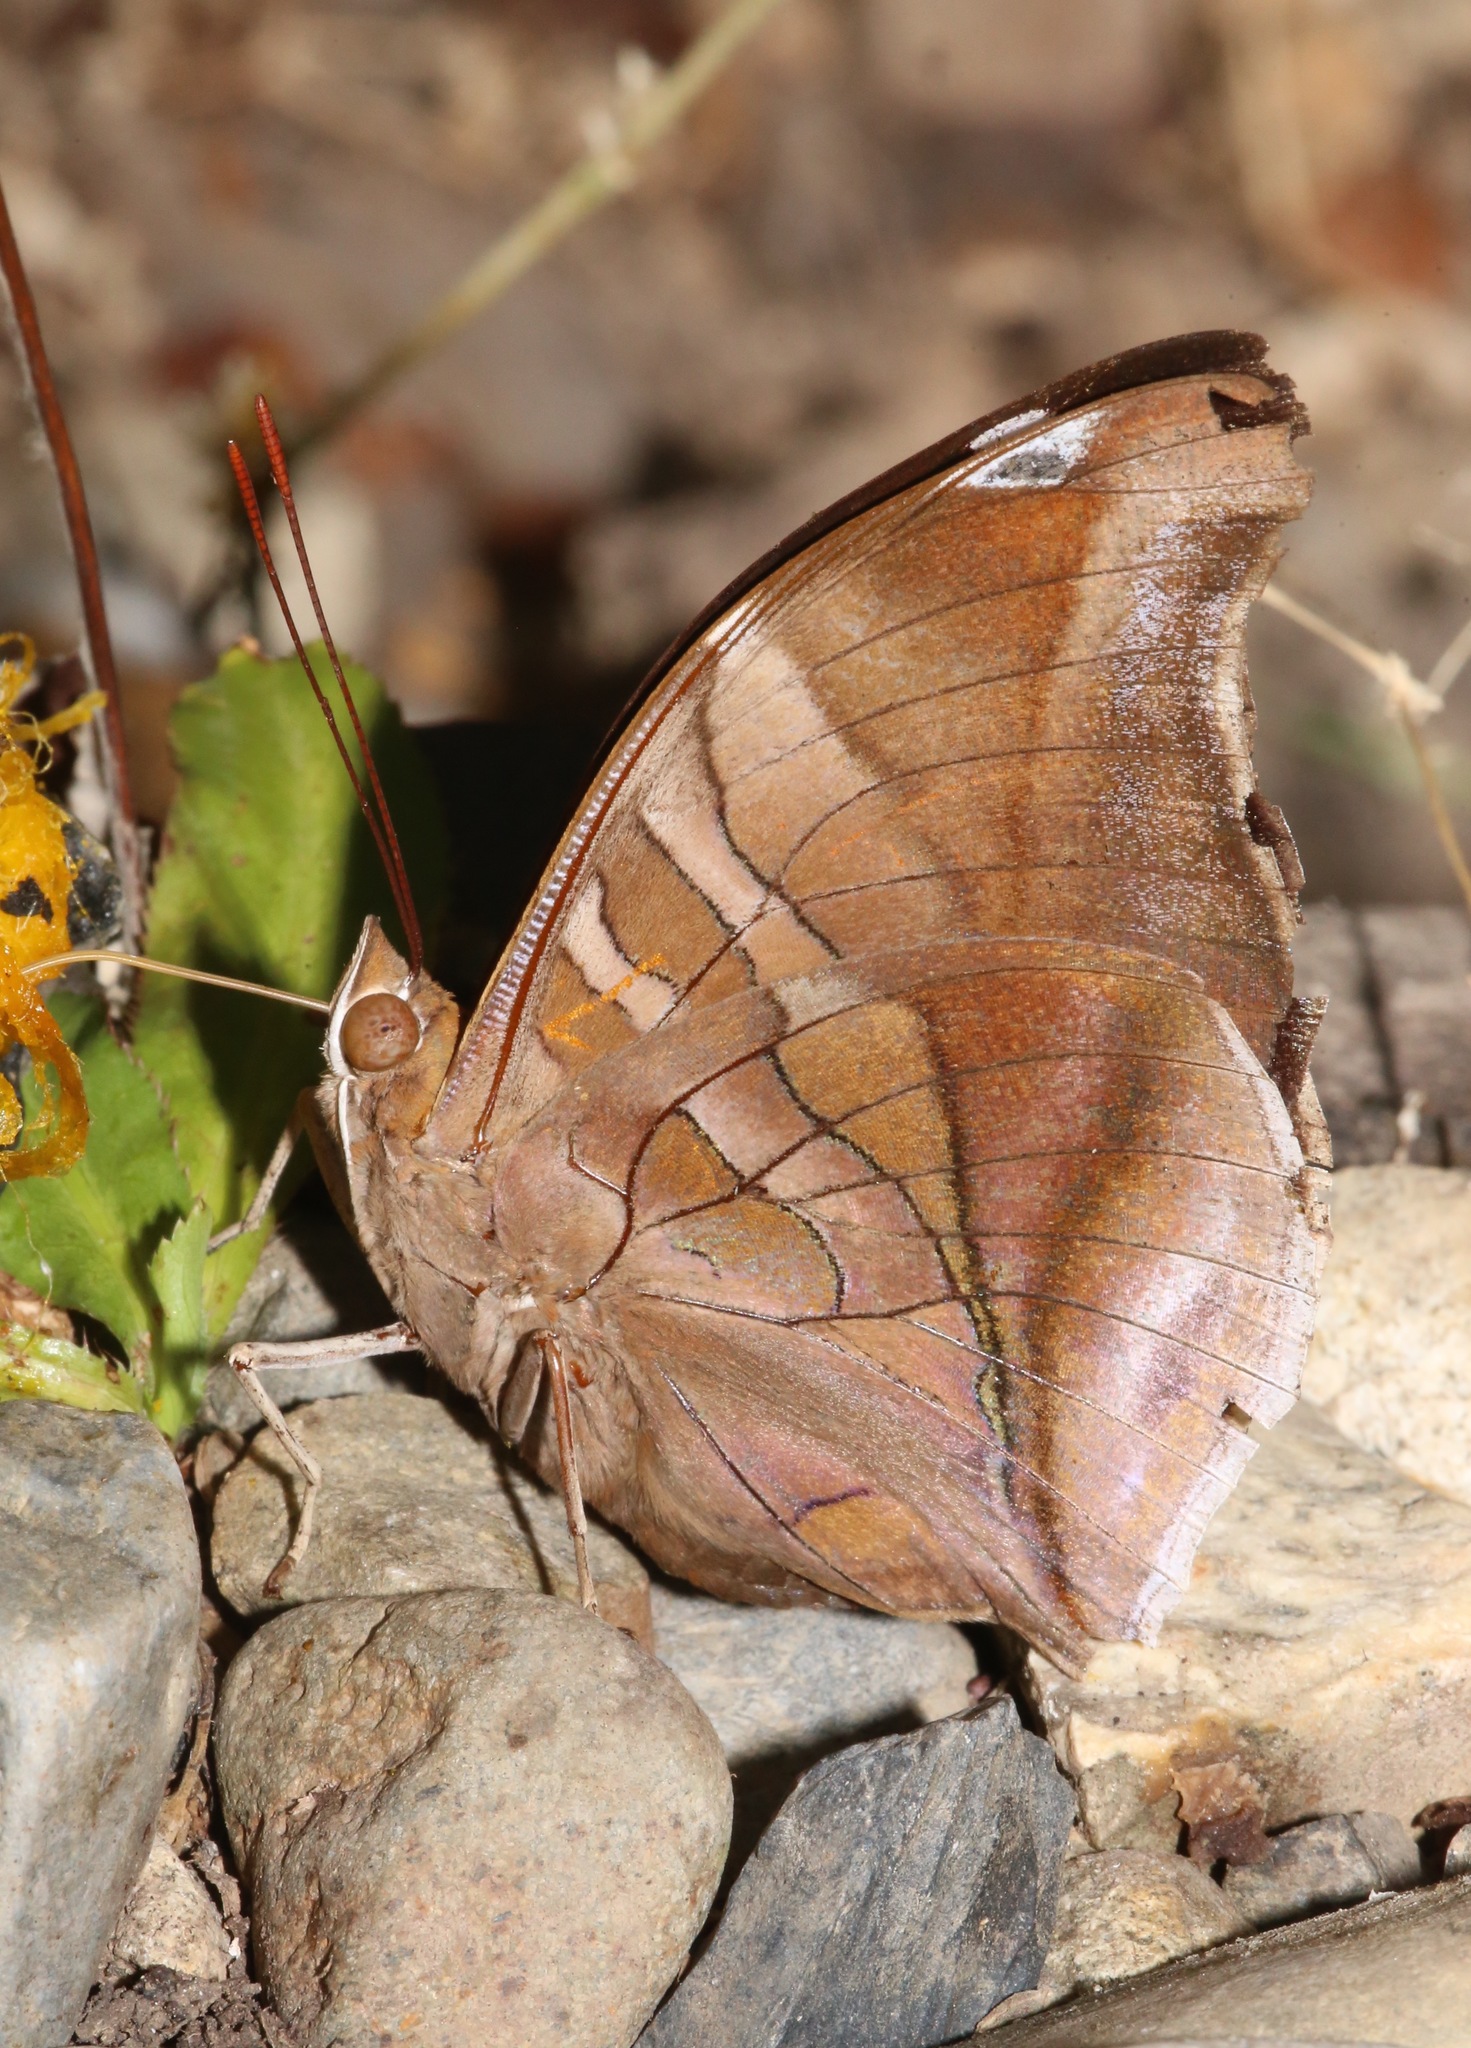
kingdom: Animalia
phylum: Arthropoda
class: Insecta
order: Lepidoptera
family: Nymphalidae
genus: Historis
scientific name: Historis odius
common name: Orion cecropian
